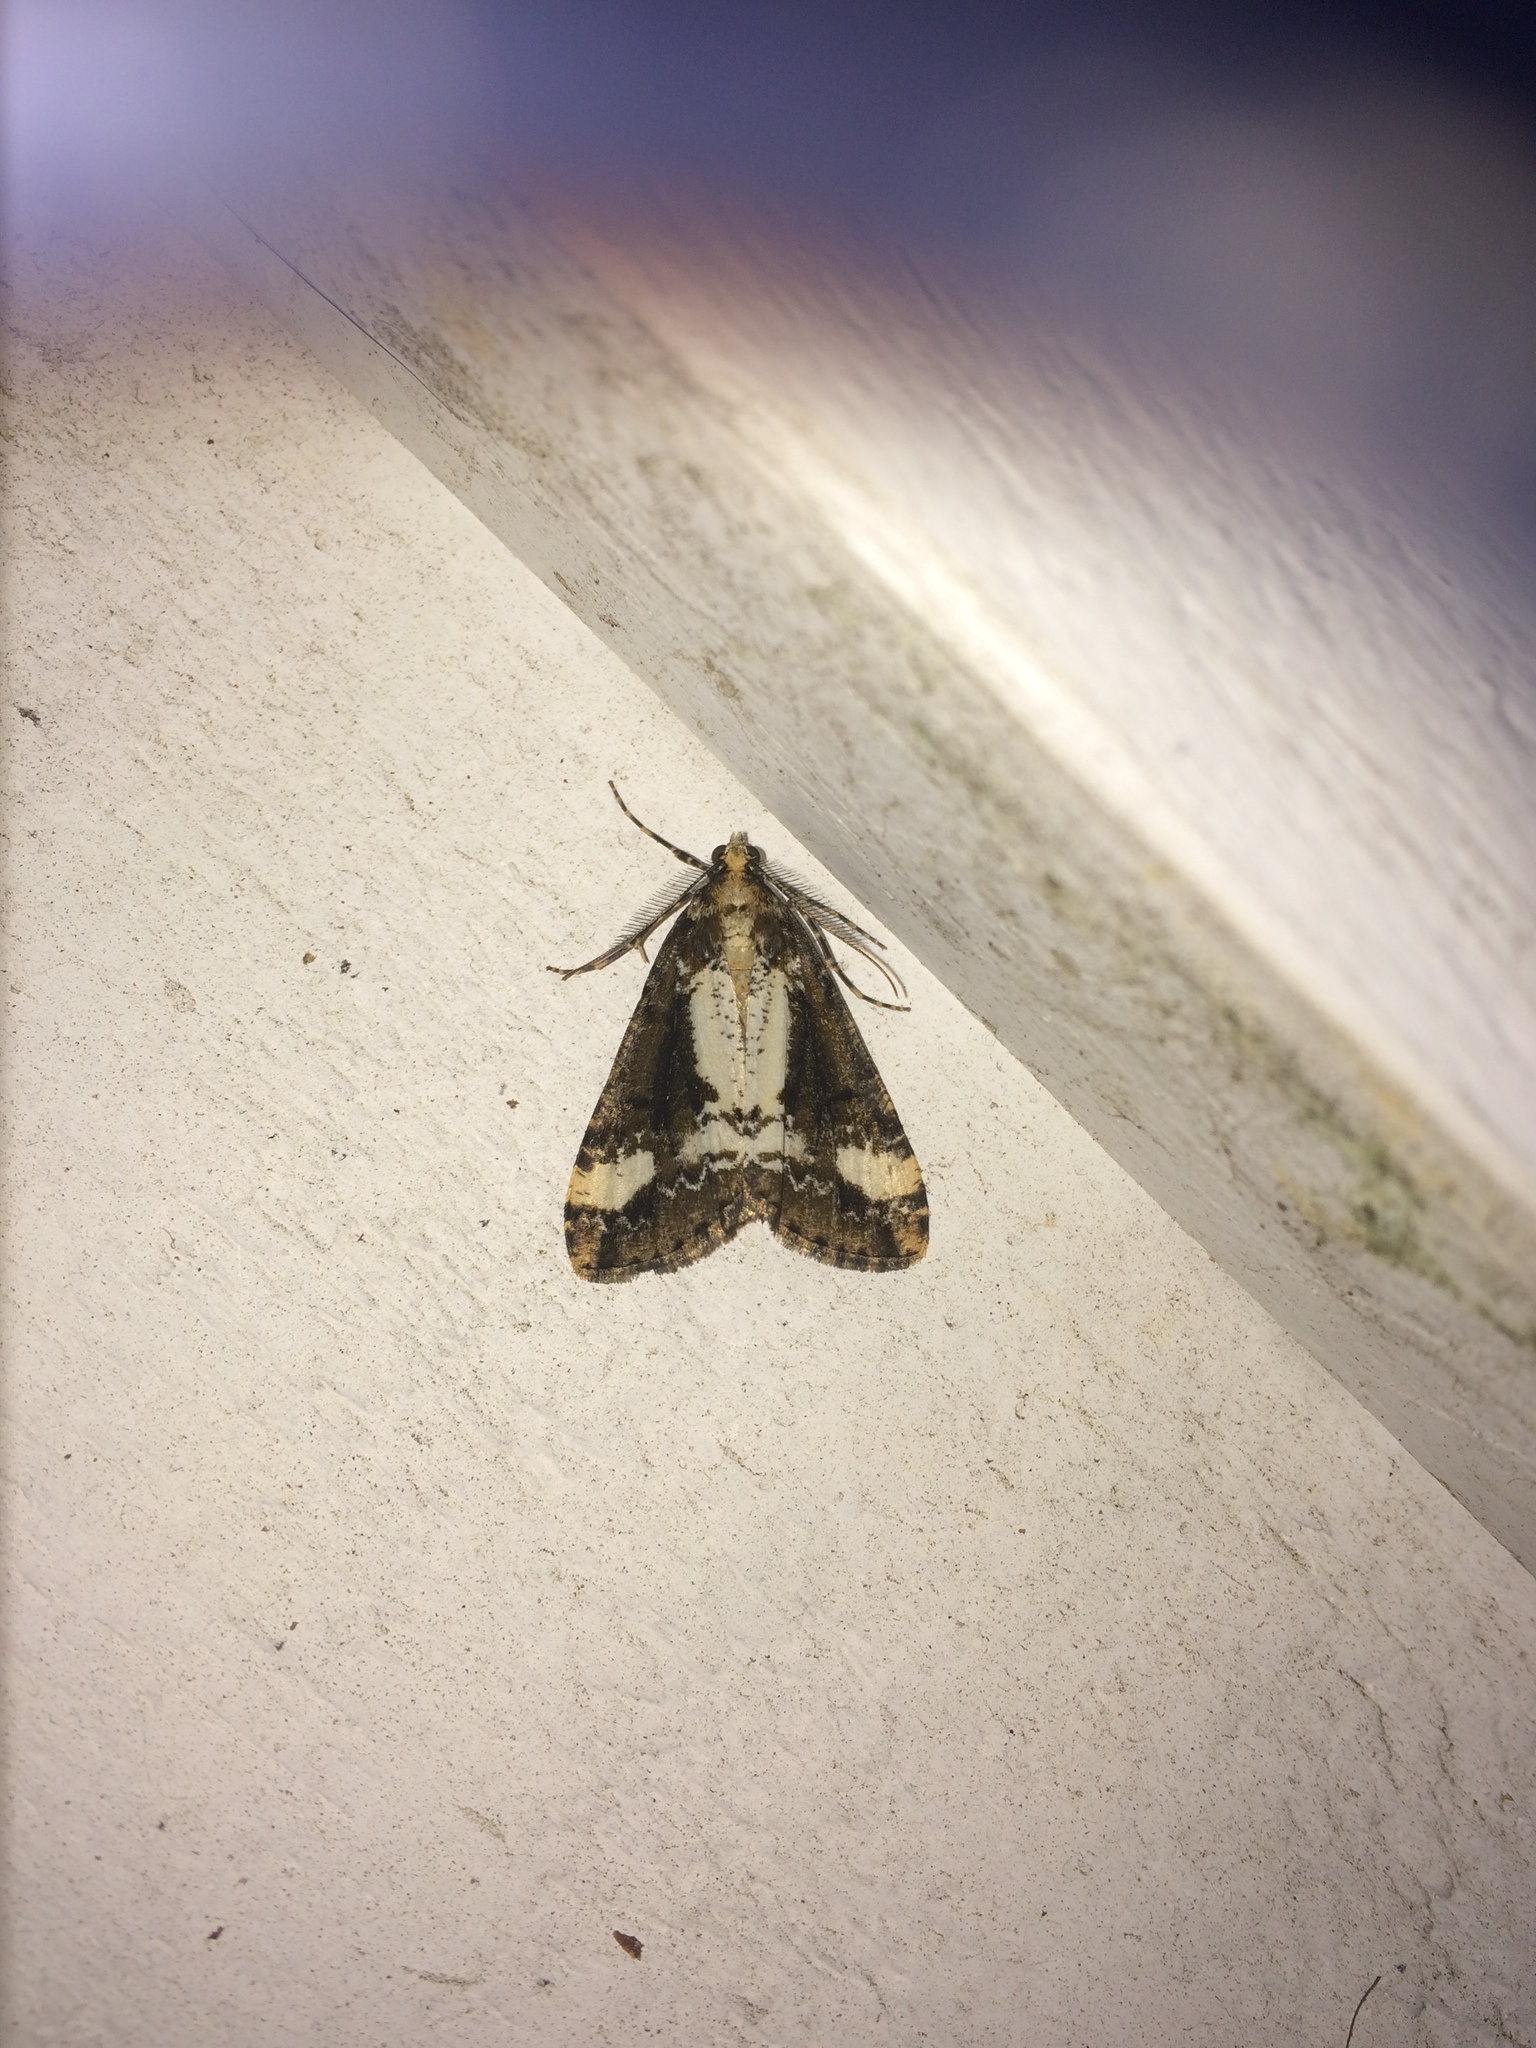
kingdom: Animalia
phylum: Arthropoda
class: Insecta
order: Lepidoptera
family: Geometridae
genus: Pseudocoremia
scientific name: Pseudocoremia leucelaea
